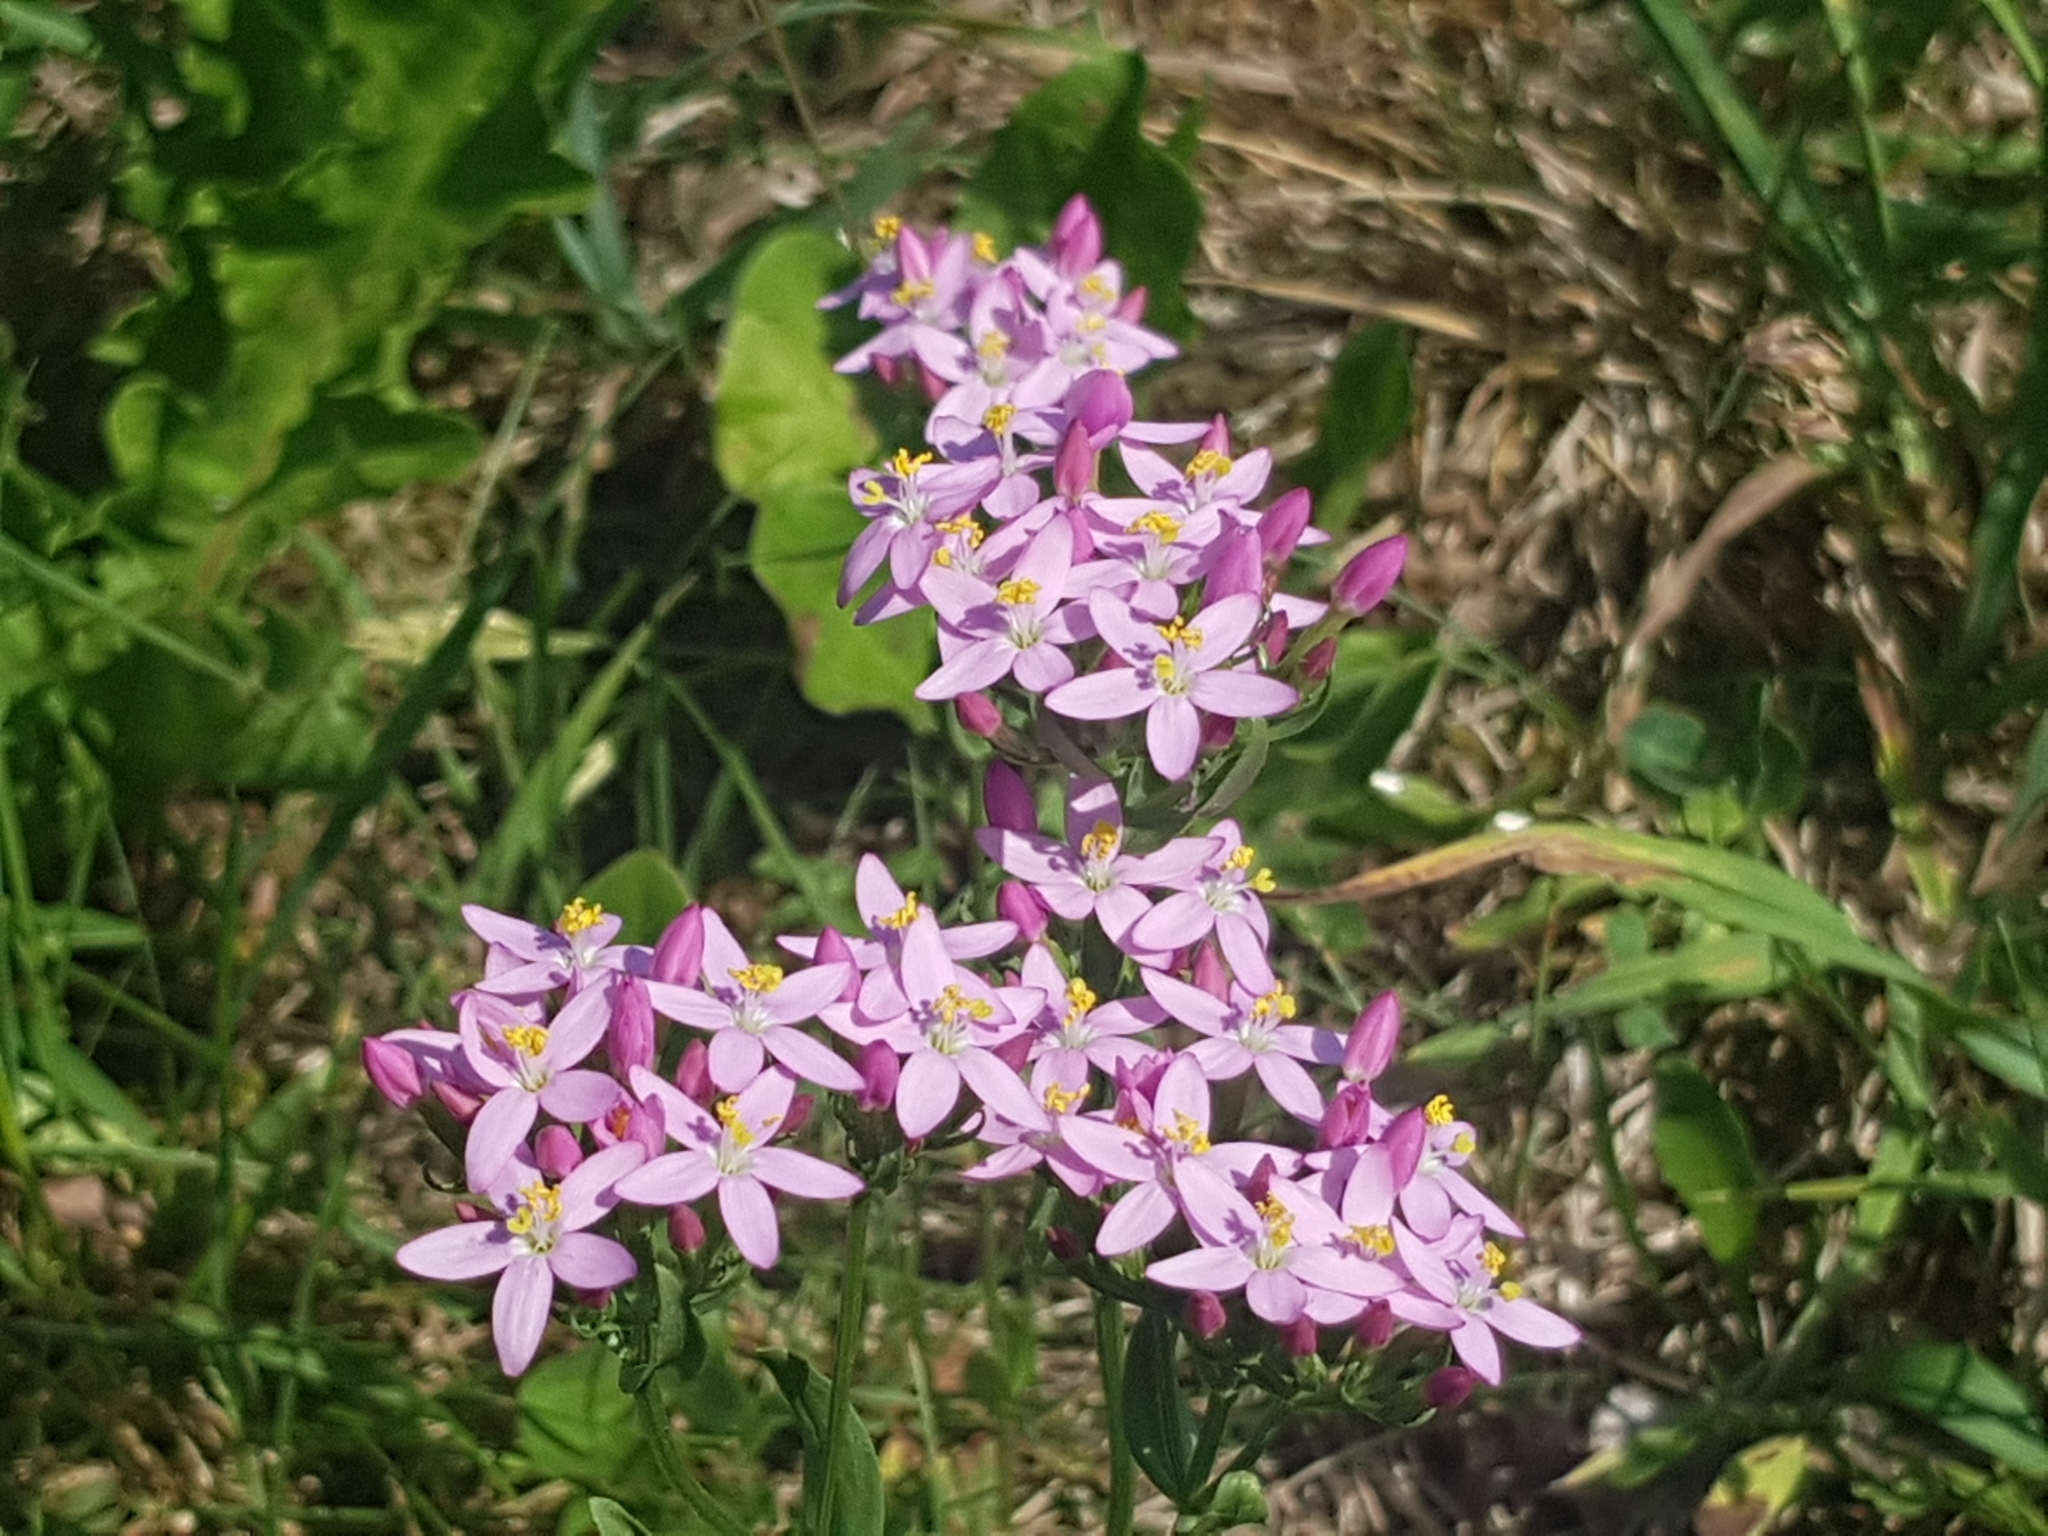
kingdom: Plantae
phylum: Tracheophyta
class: Magnoliopsida
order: Gentianales
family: Gentianaceae
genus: Centaurium
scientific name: Centaurium erythraea
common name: Common centaury
